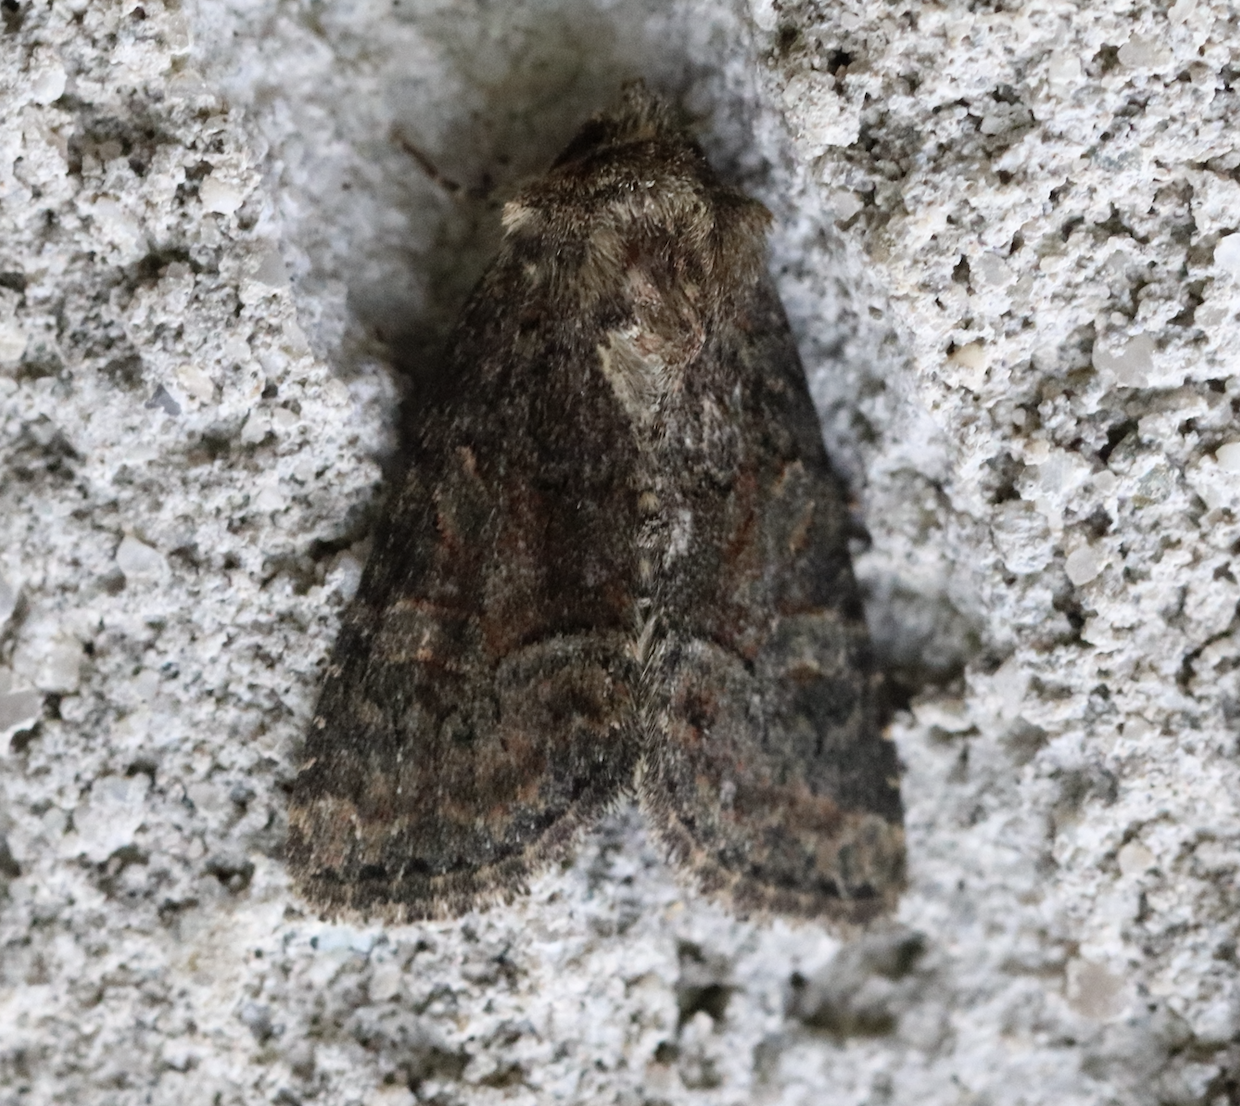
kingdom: Animalia
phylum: Arthropoda
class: Insecta
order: Lepidoptera
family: Noctuidae
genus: Oligia
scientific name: Oligia latruncula
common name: Tawny marbled minor
